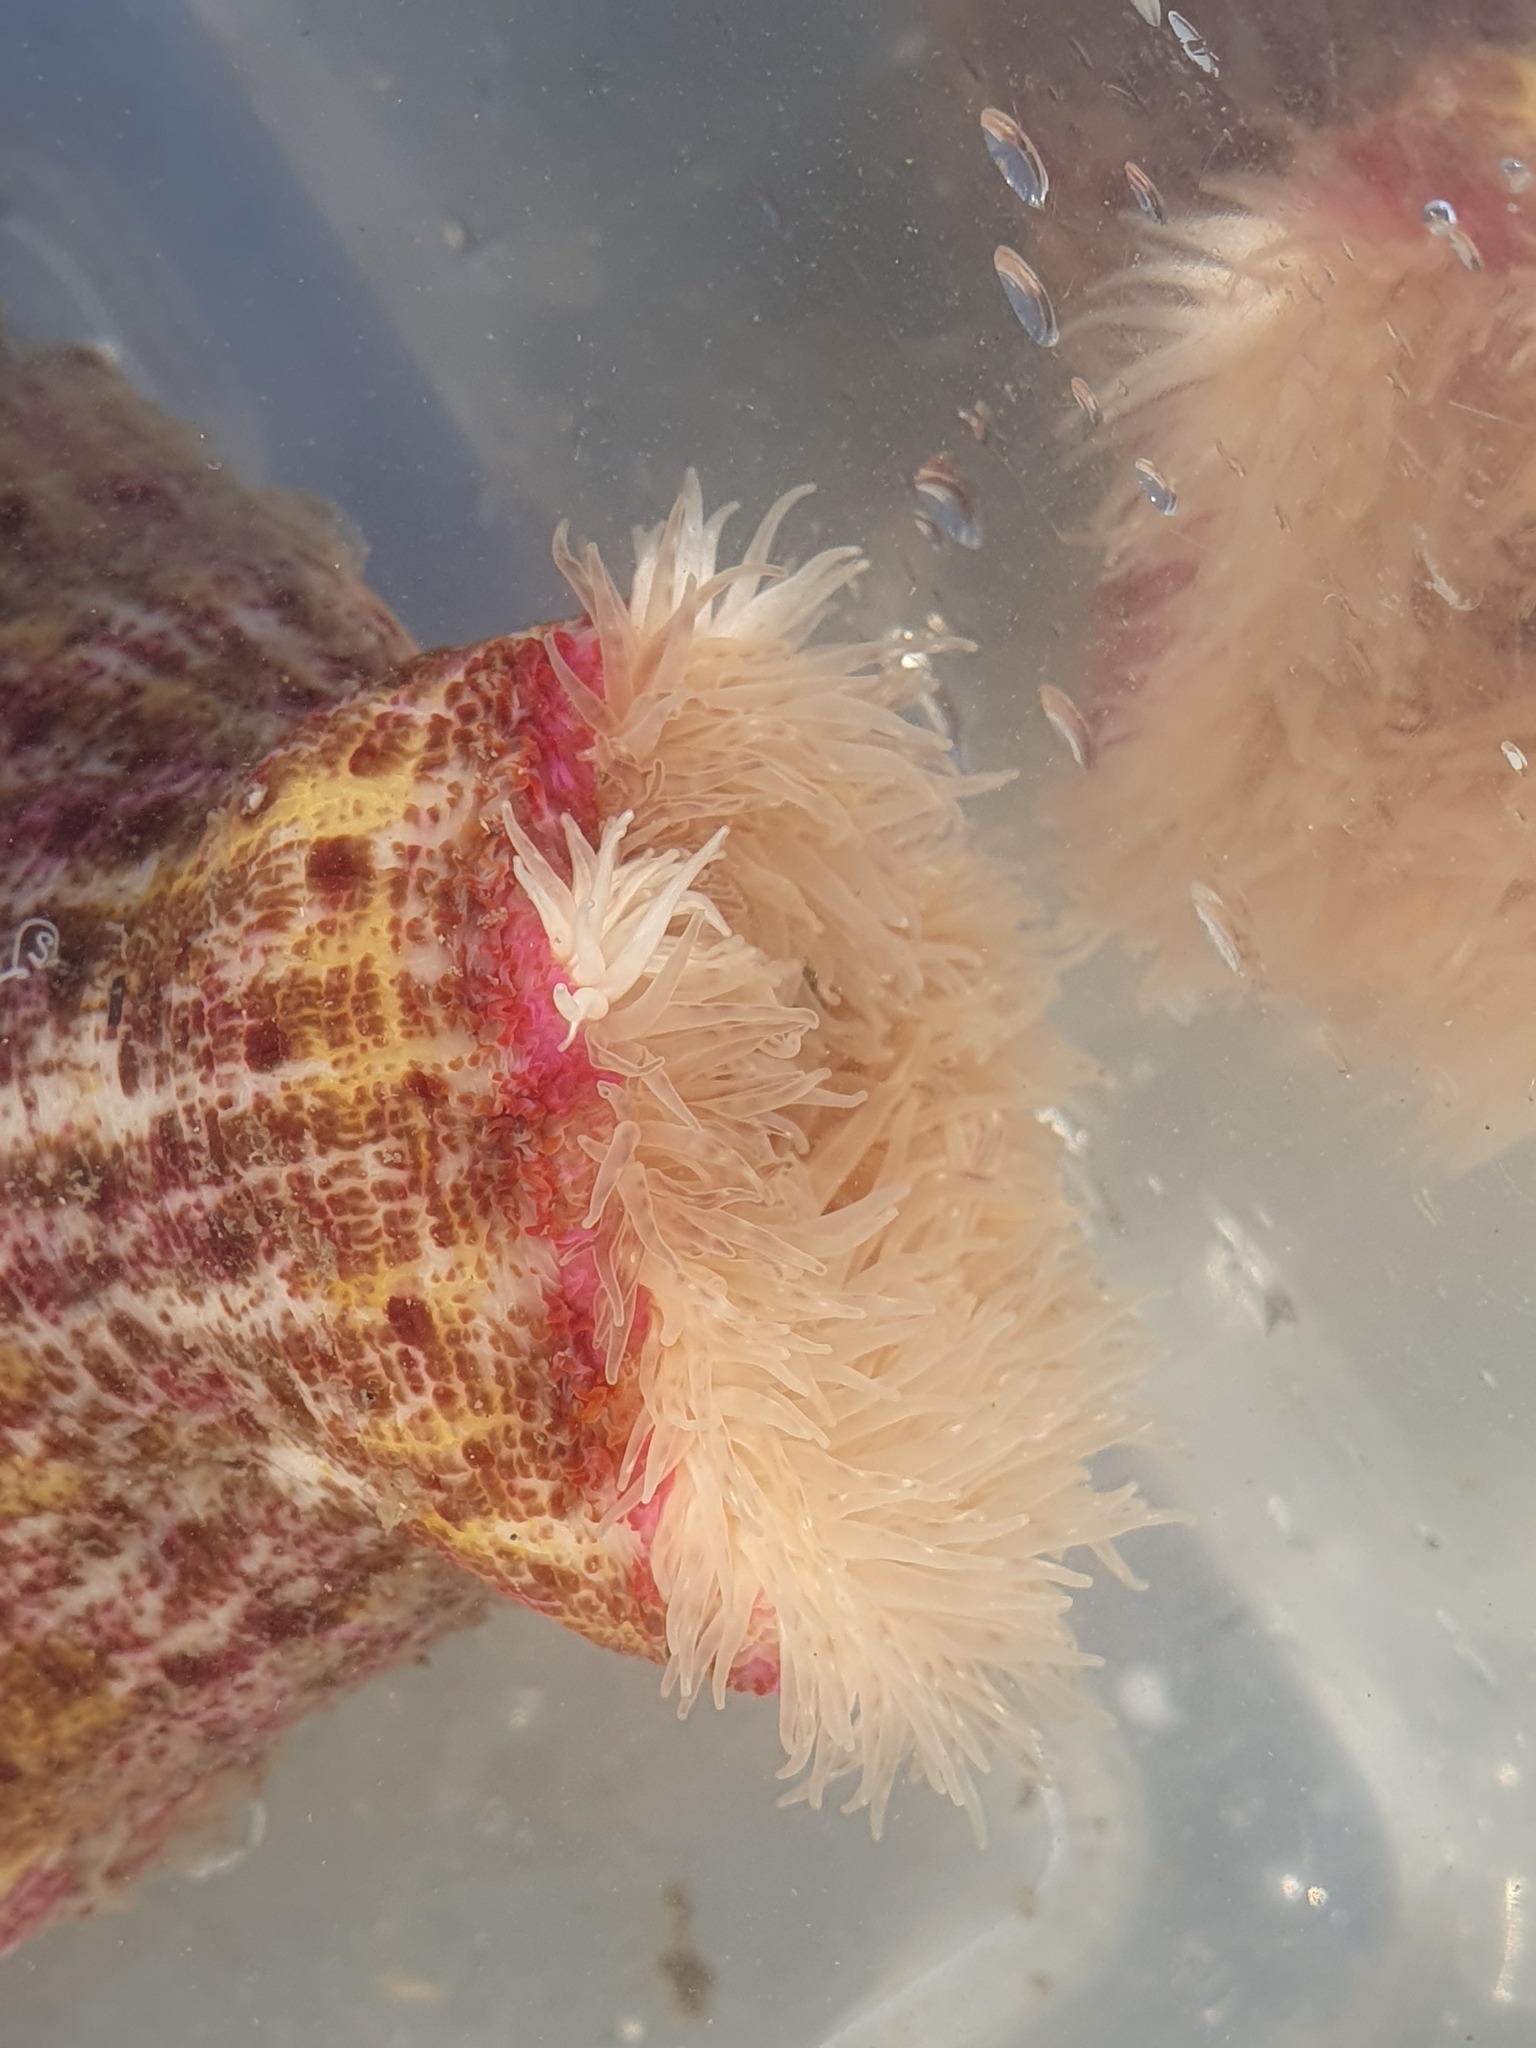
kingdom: Animalia
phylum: Cnidaria
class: Anthozoa
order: Actiniaria
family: Hormathiidae
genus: Calliactis
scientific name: Calliactis parasitica
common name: Parasitic anemone
